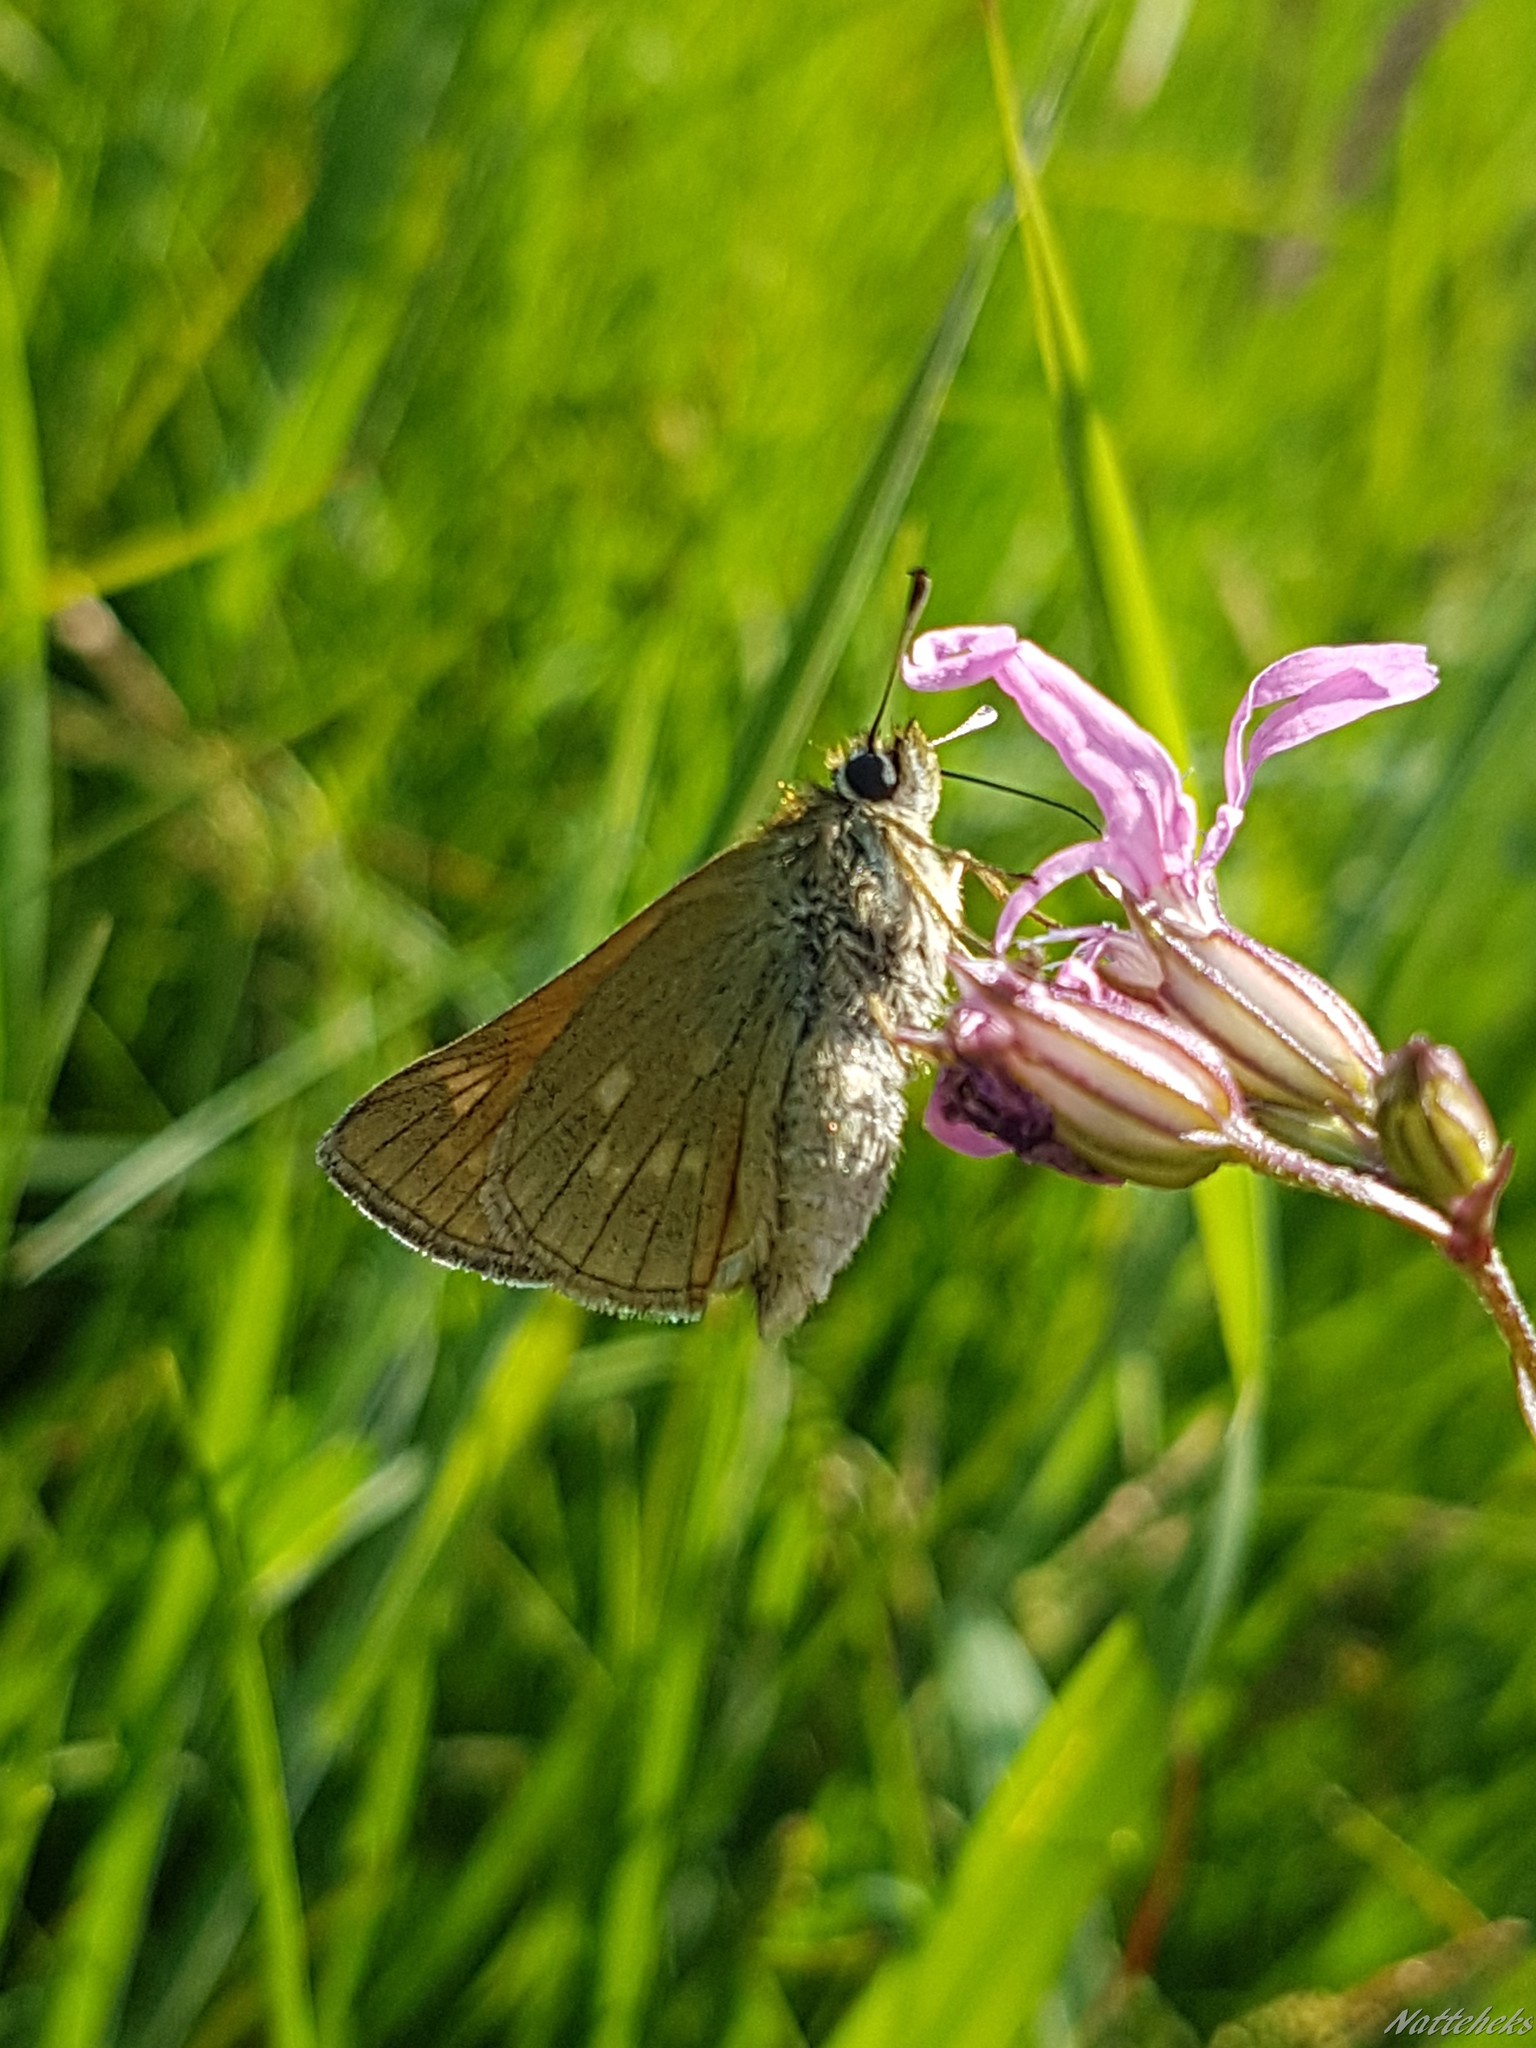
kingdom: Animalia
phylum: Arthropoda
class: Insecta
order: Lepidoptera
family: Hesperiidae
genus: Ochlodes
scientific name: Ochlodes venata
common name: Large skipper
